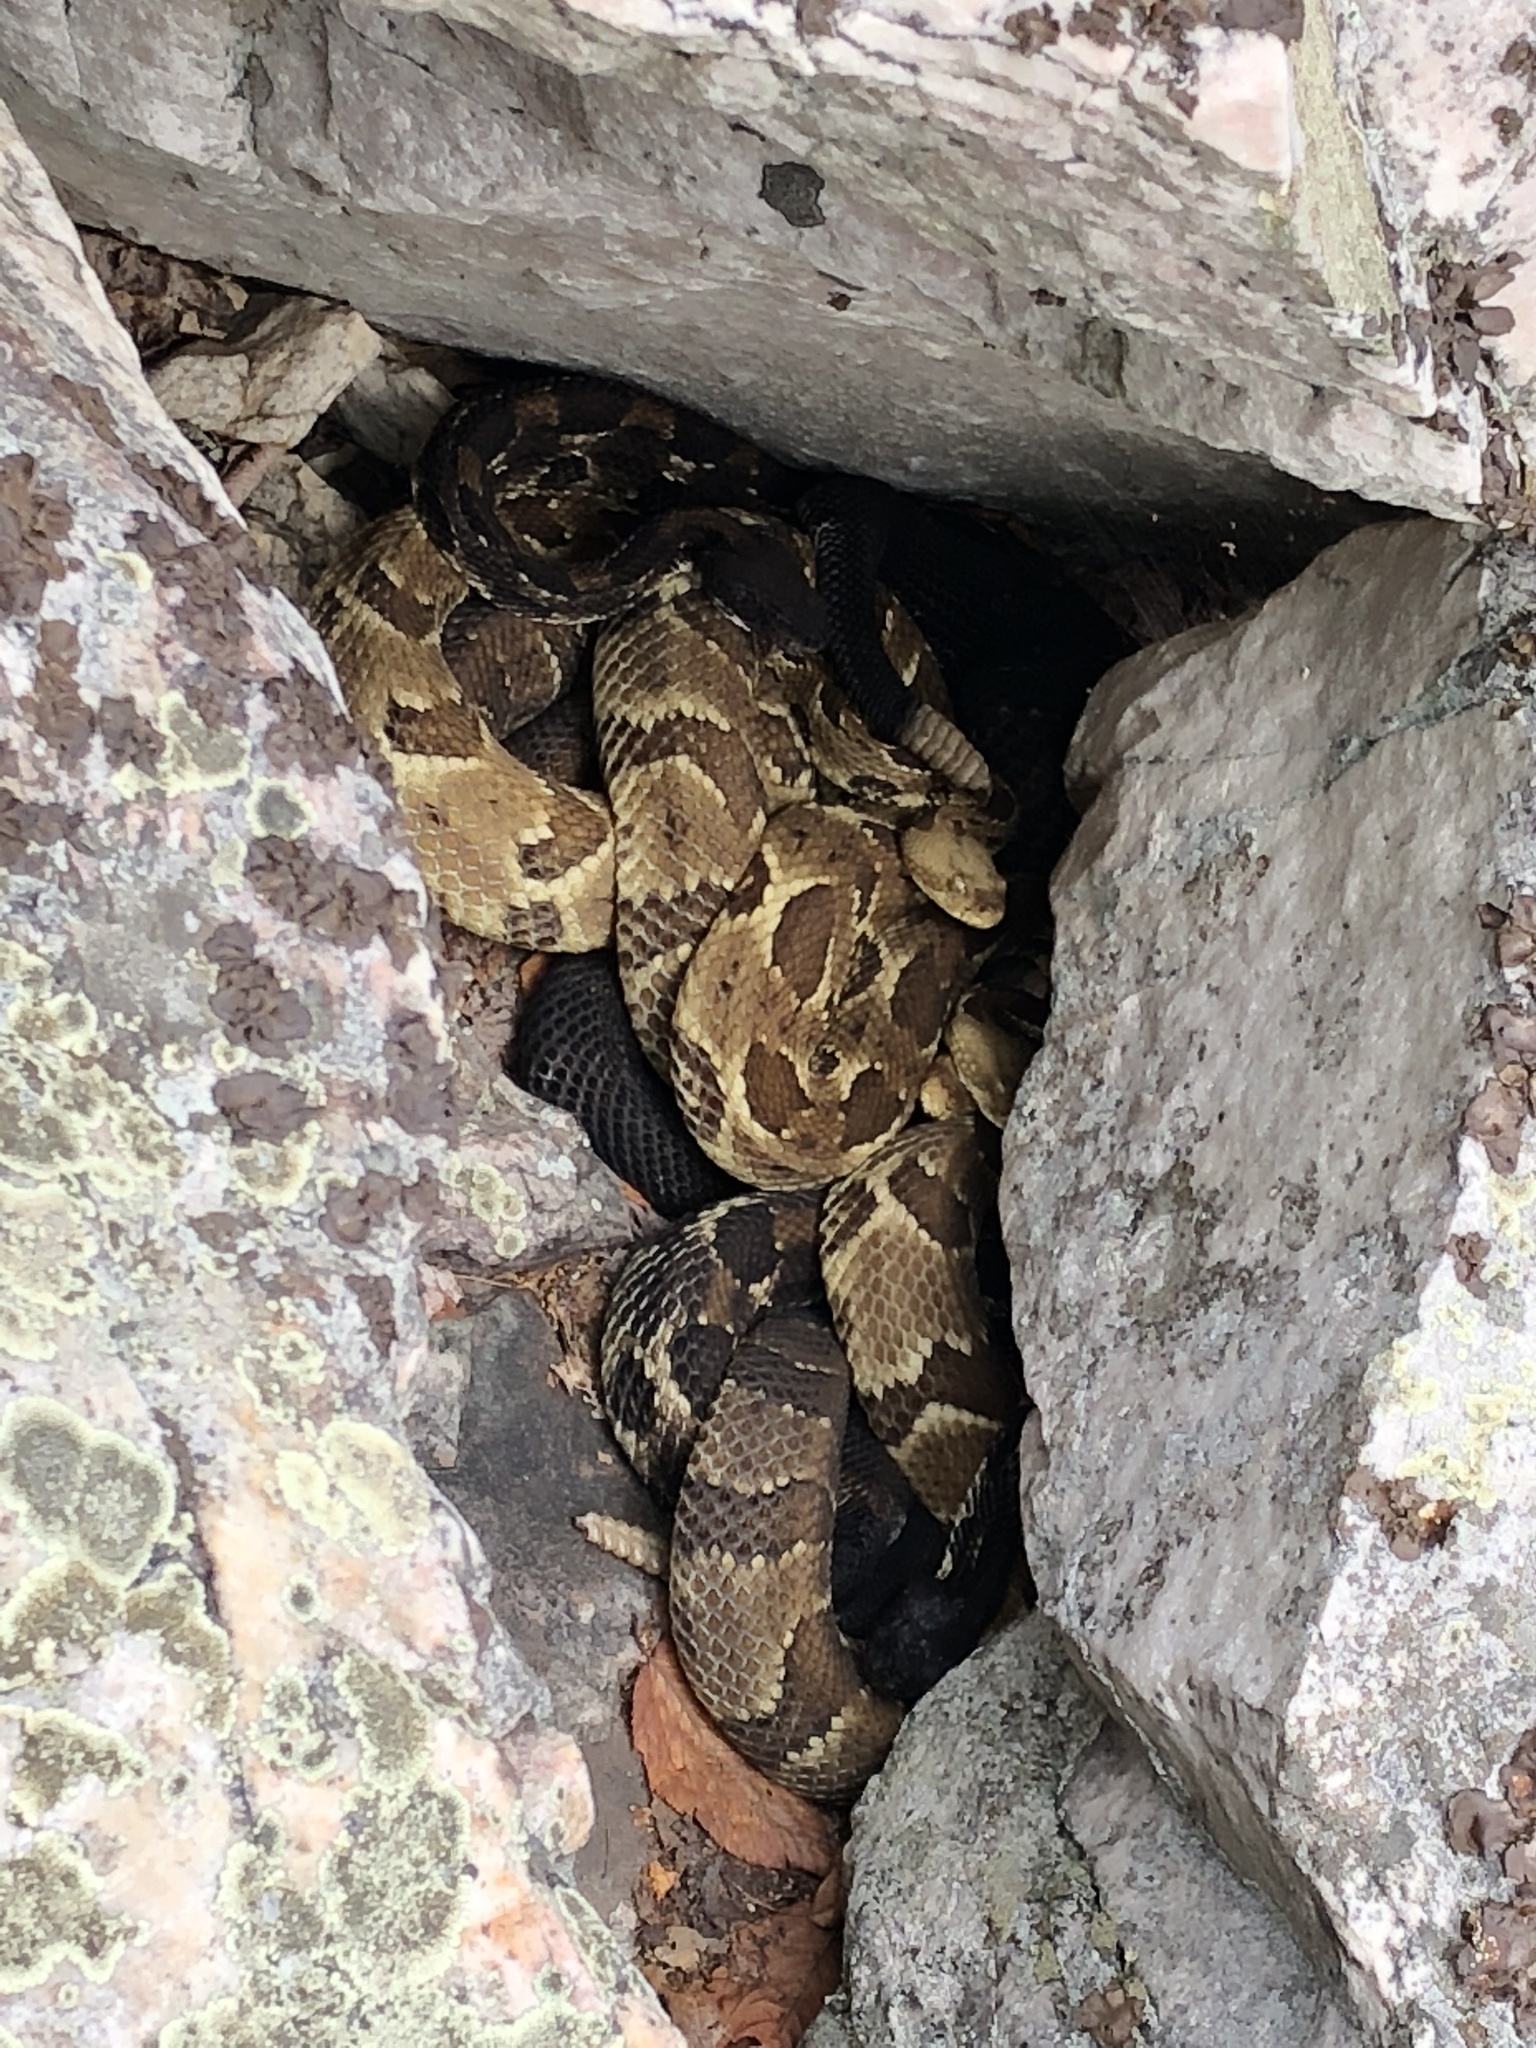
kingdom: Animalia
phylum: Chordata
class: Squamata
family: Viperidae
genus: Crotalus
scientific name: Crotalus horridus
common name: Timber rattlesnake
